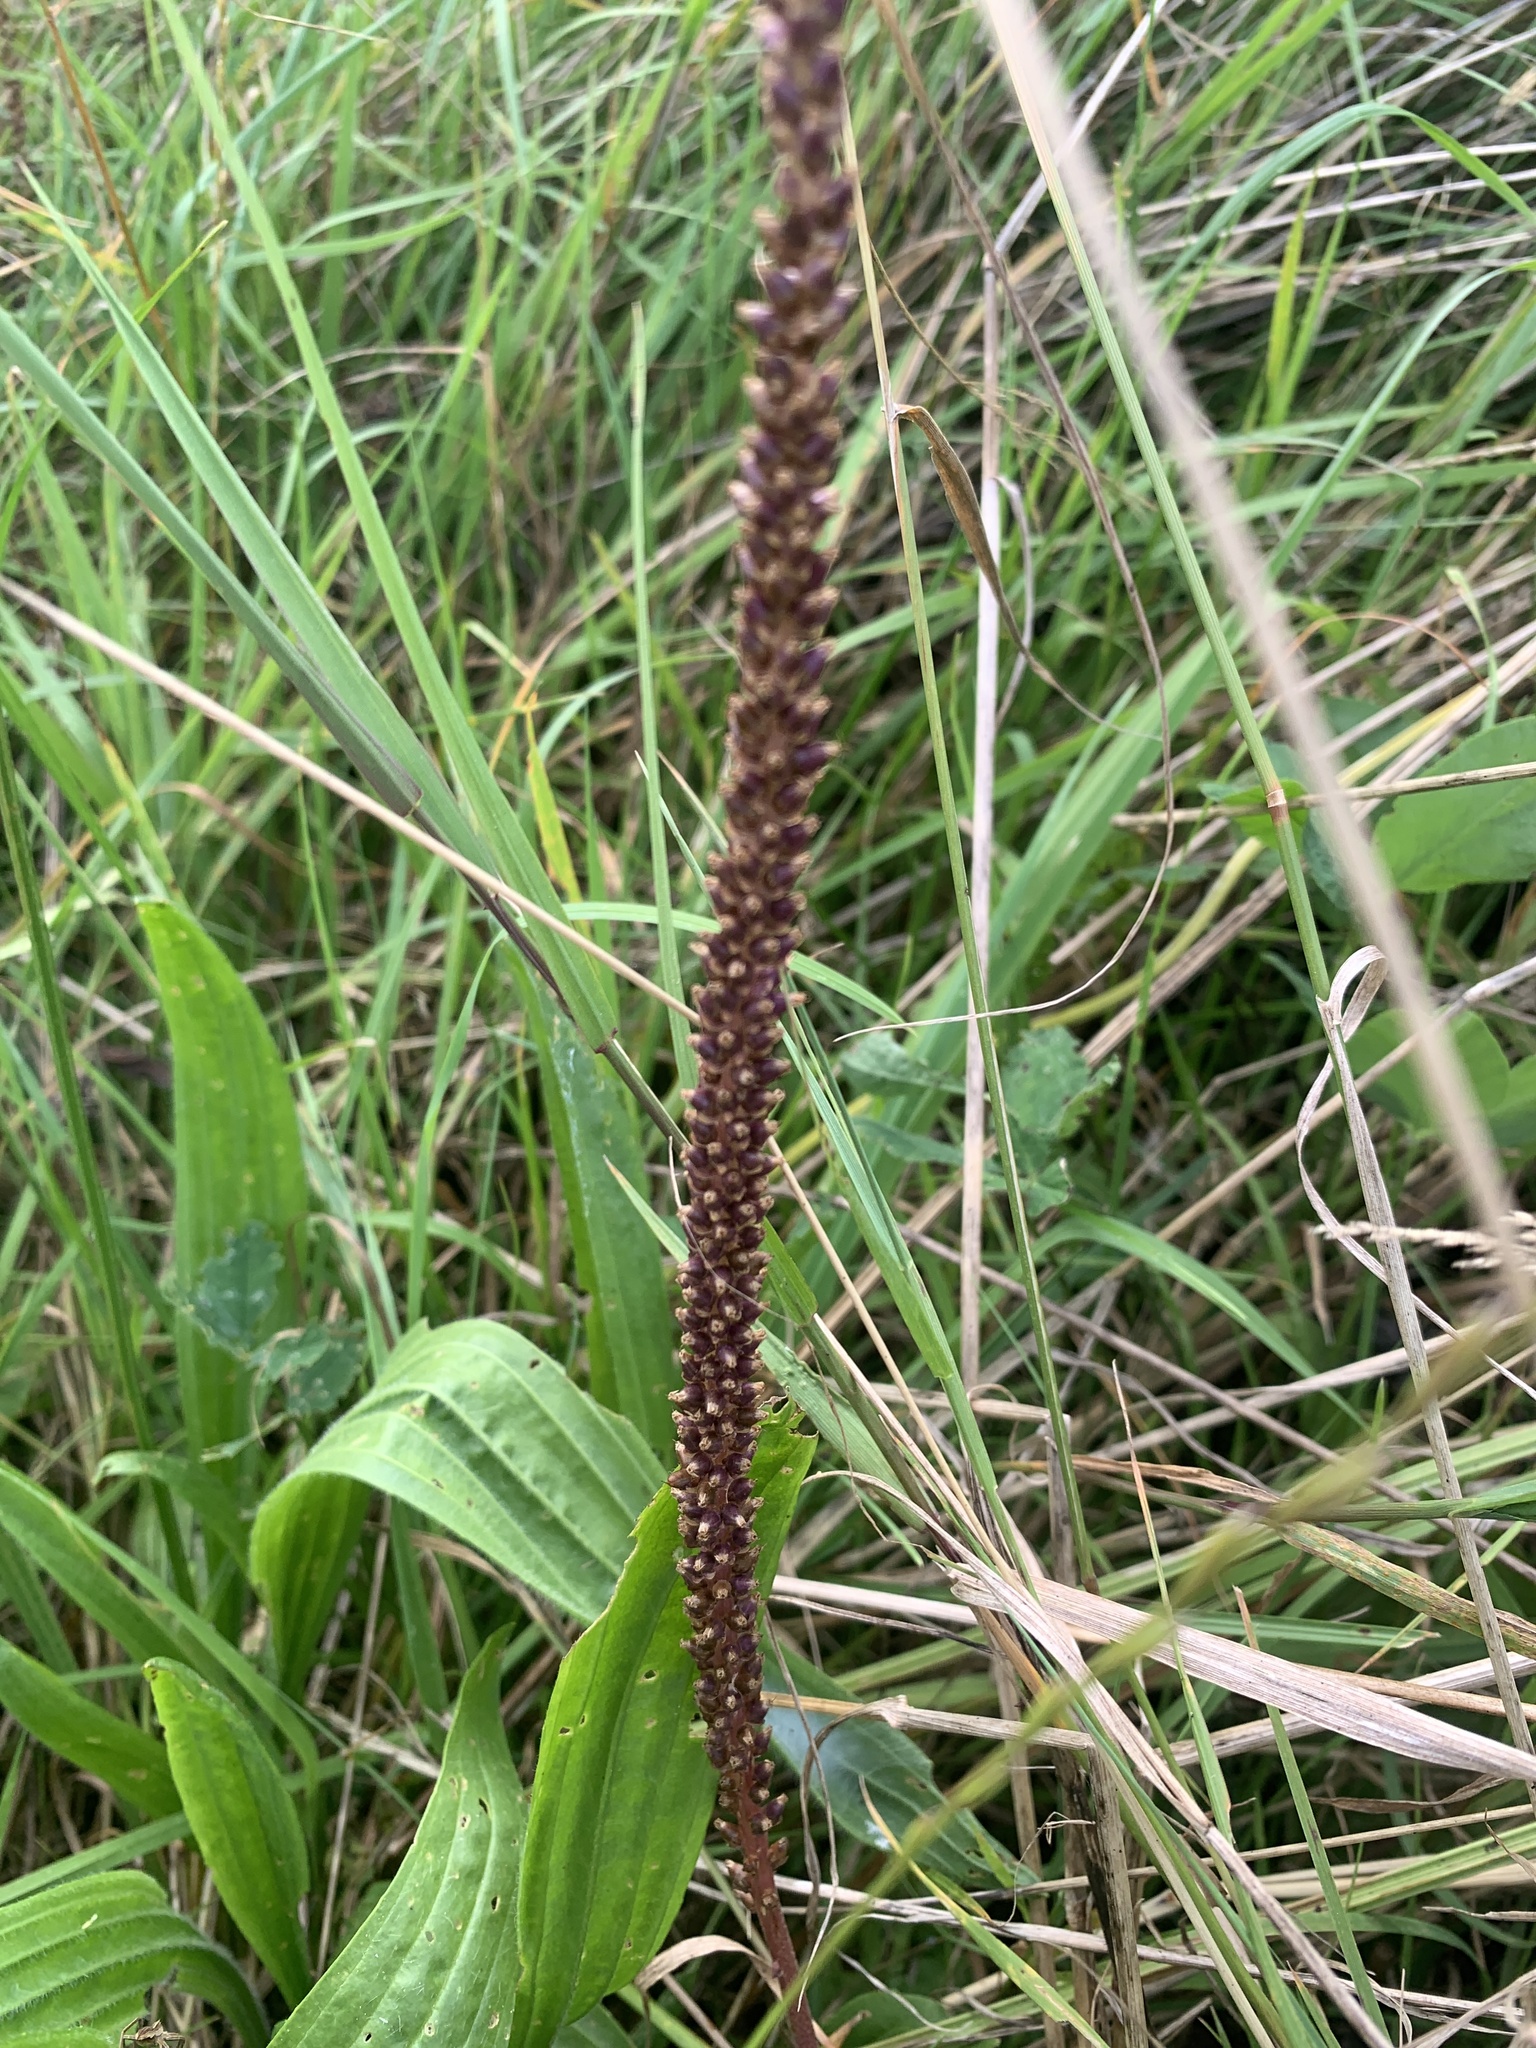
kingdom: Plantae
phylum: Tracheophyta
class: Magnoliopsida
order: Lamiales
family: Plantaginaceae
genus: Plantago
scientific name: Plantago major
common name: Common plantain
